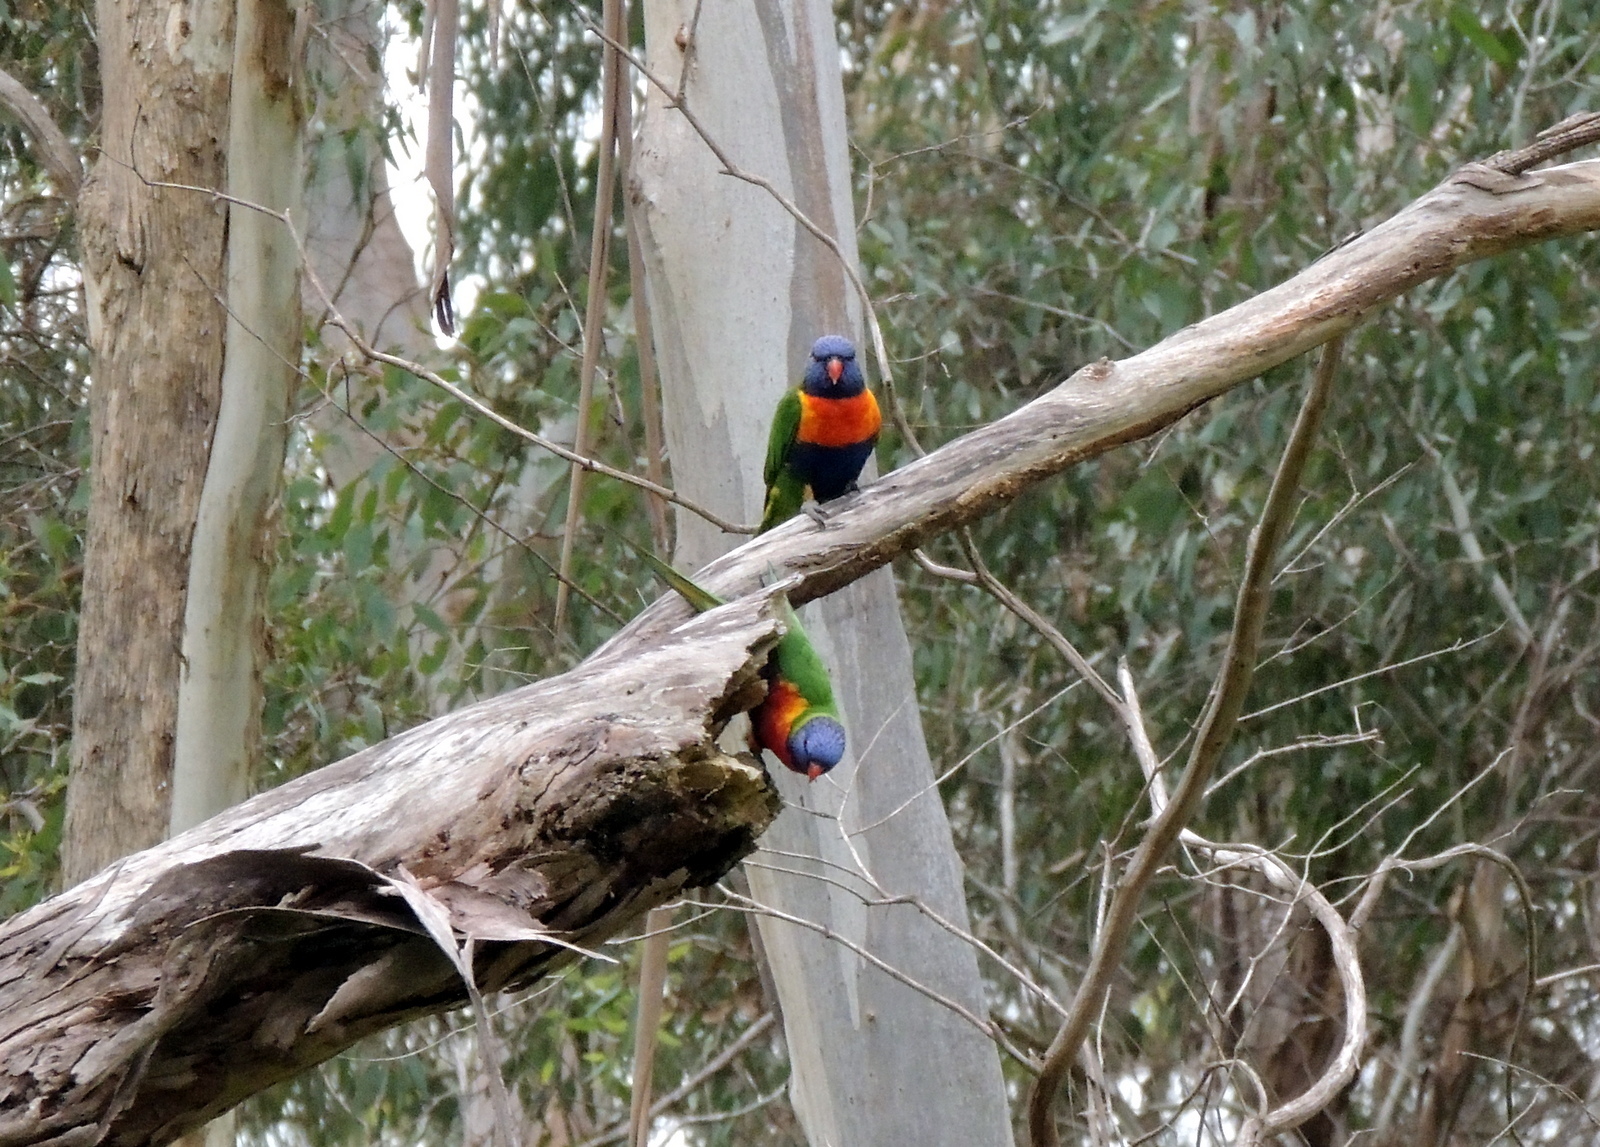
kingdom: Animalia
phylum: Chordata
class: Aves
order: Psittaciformes
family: Psittacidae
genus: Trichoglossus
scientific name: Trichoglossus haematodus
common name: Coconut lorikeet
